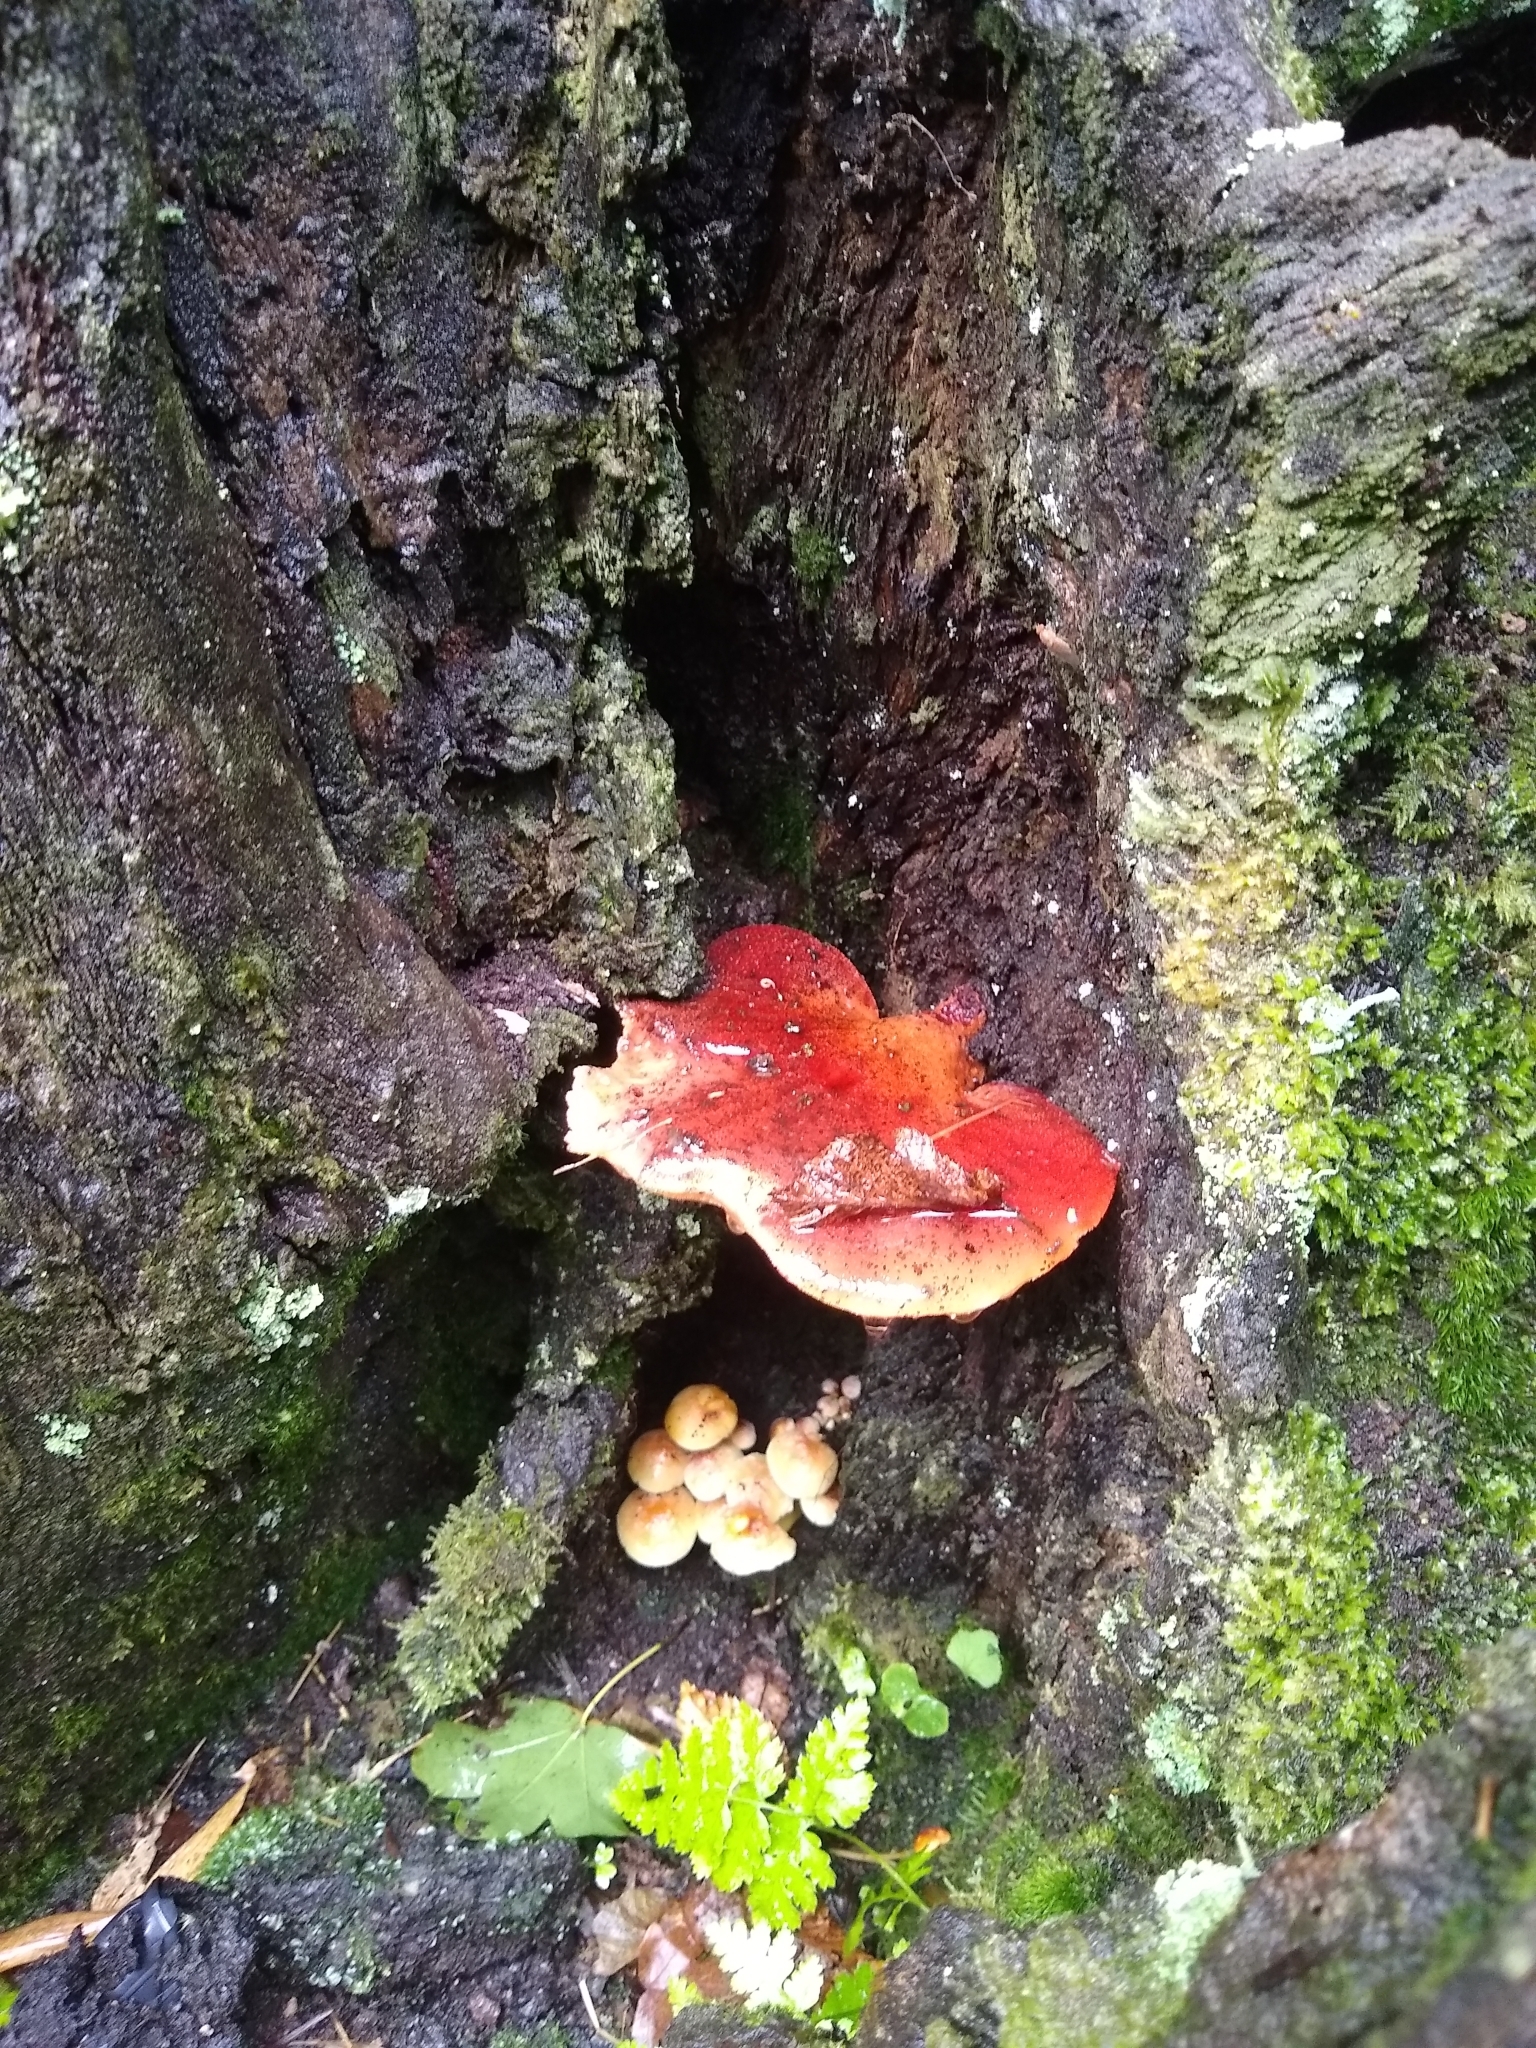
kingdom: Fungi
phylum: Basidiomycota
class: Agaricomycetes
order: Agaricales
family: Fistulinaceae
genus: Fistulina
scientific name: Fistulina hepatica
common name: Beef-steak fungus
